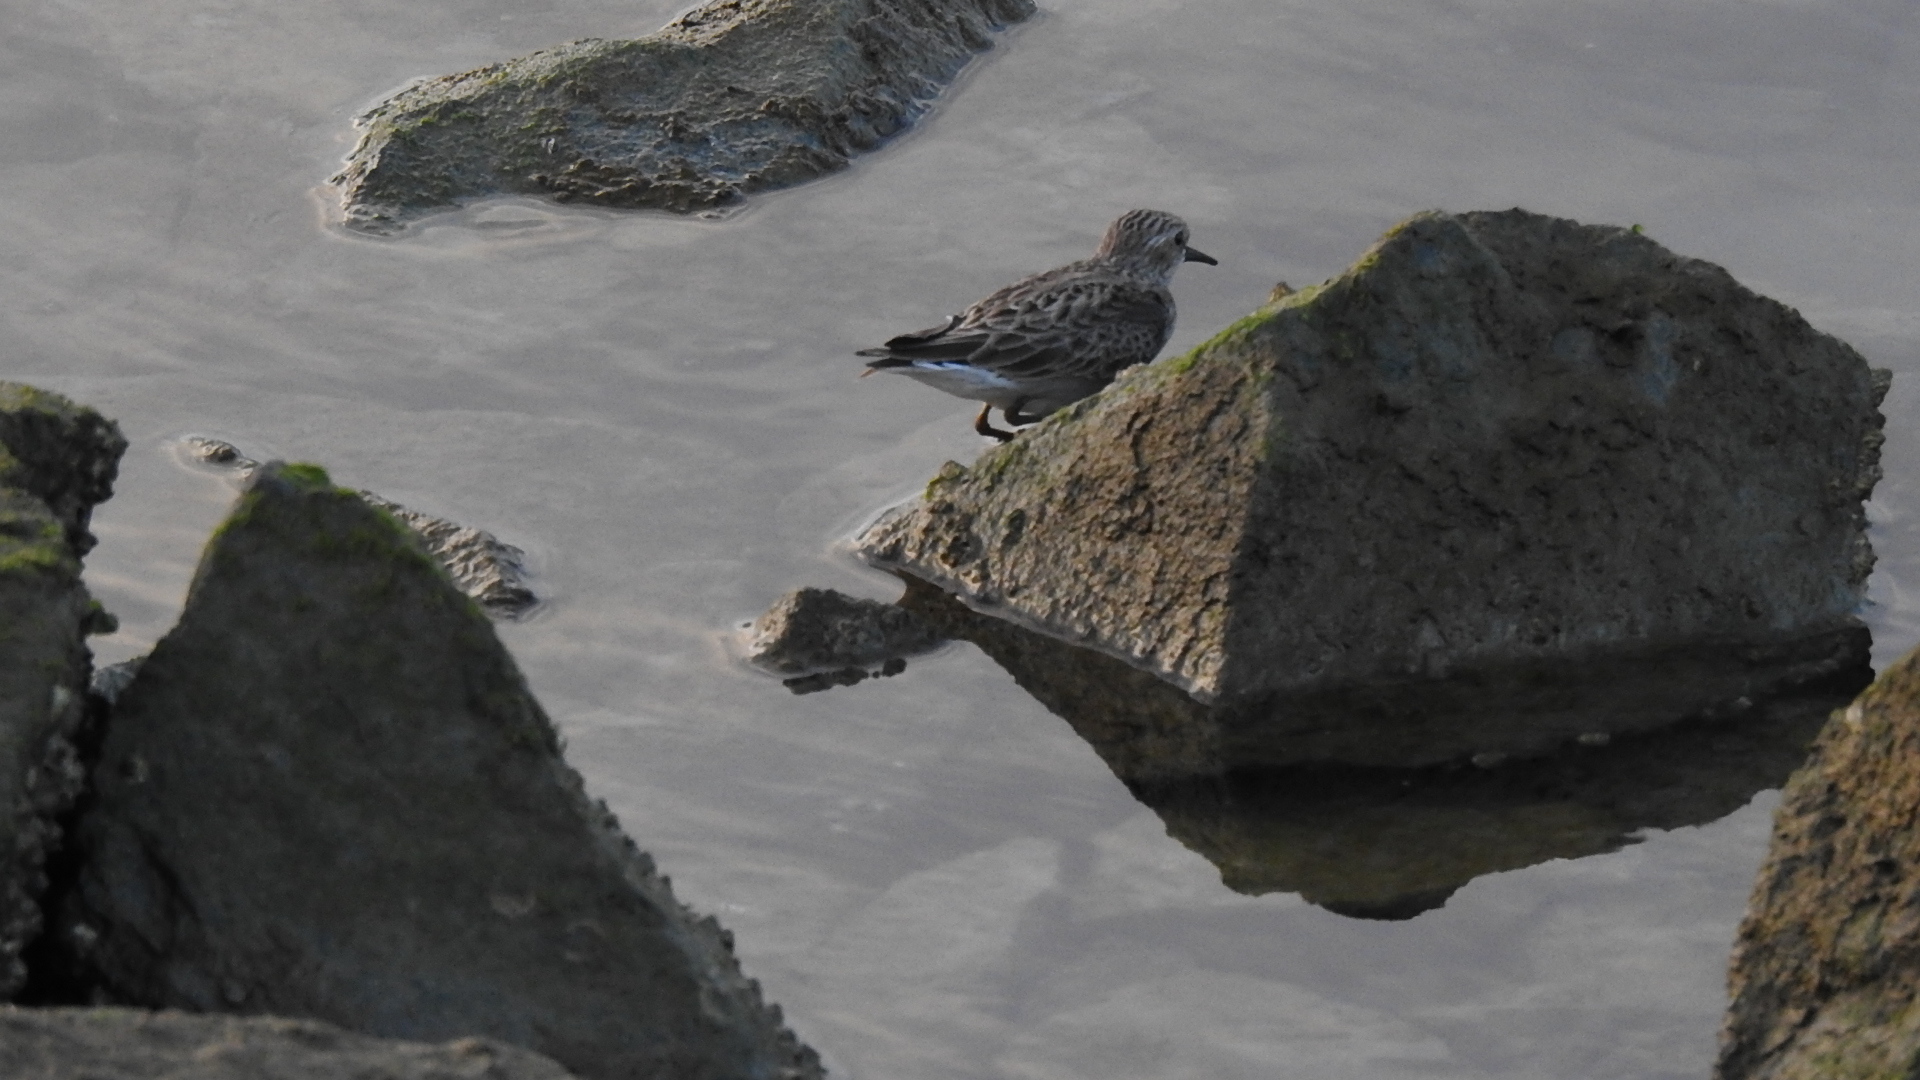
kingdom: Animalia
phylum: Chordata
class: Aves
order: Charadriiformes
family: Scolopacidae
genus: Calidris
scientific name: Calidris minutilla
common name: Least sandpiper
